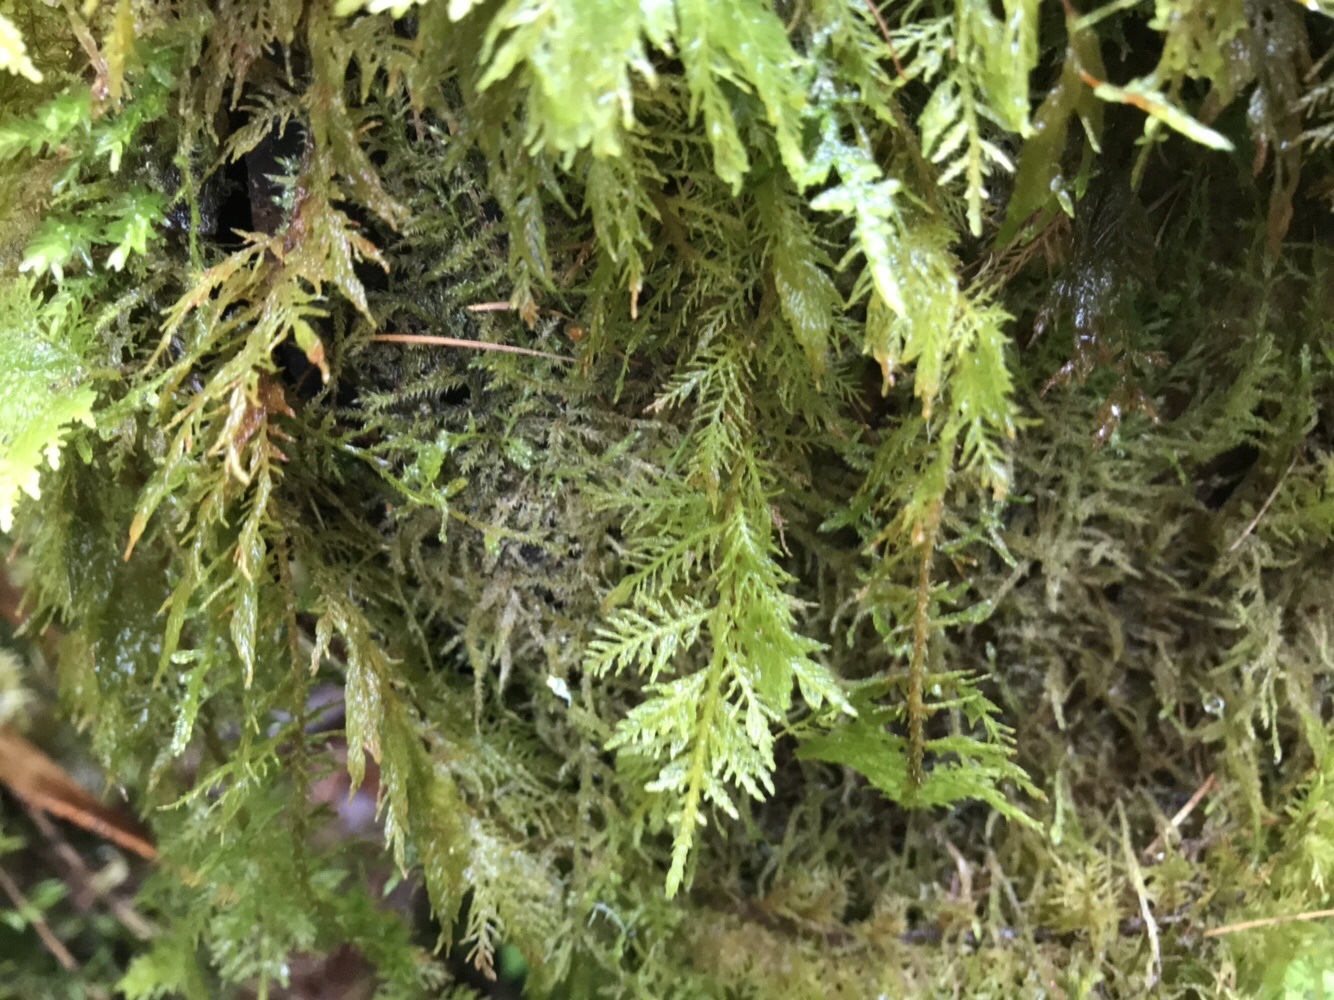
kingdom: Plantae
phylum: Bryophyta
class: Bryopsida
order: Hypnales
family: Thuidiaceae
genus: Thuidium
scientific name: Thuidium tamariscinum
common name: Common tamarisk-moss
